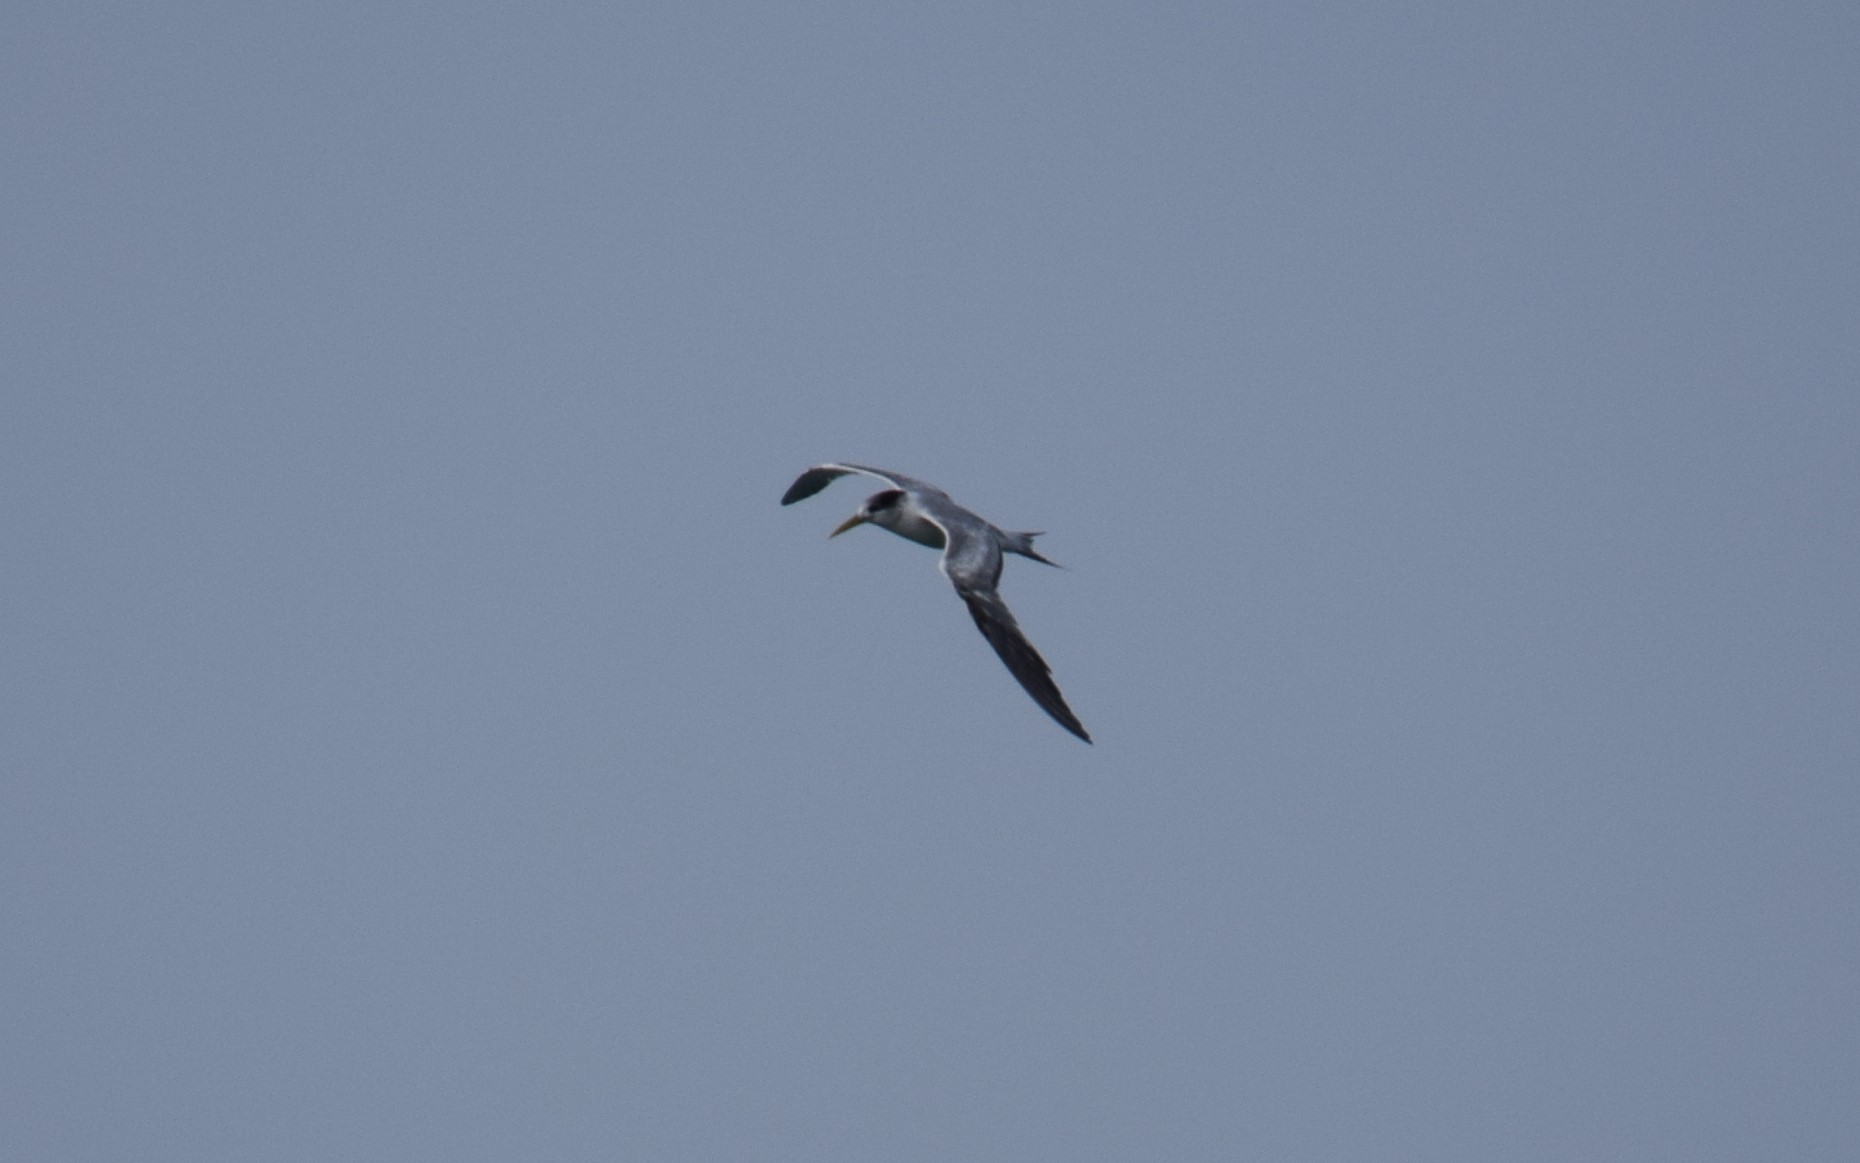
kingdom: Animalia
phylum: Chordata
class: Aves
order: Charadriiformes
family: Laridae
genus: Thalasseus
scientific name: Thalasseus bergii
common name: Greater crested tern
